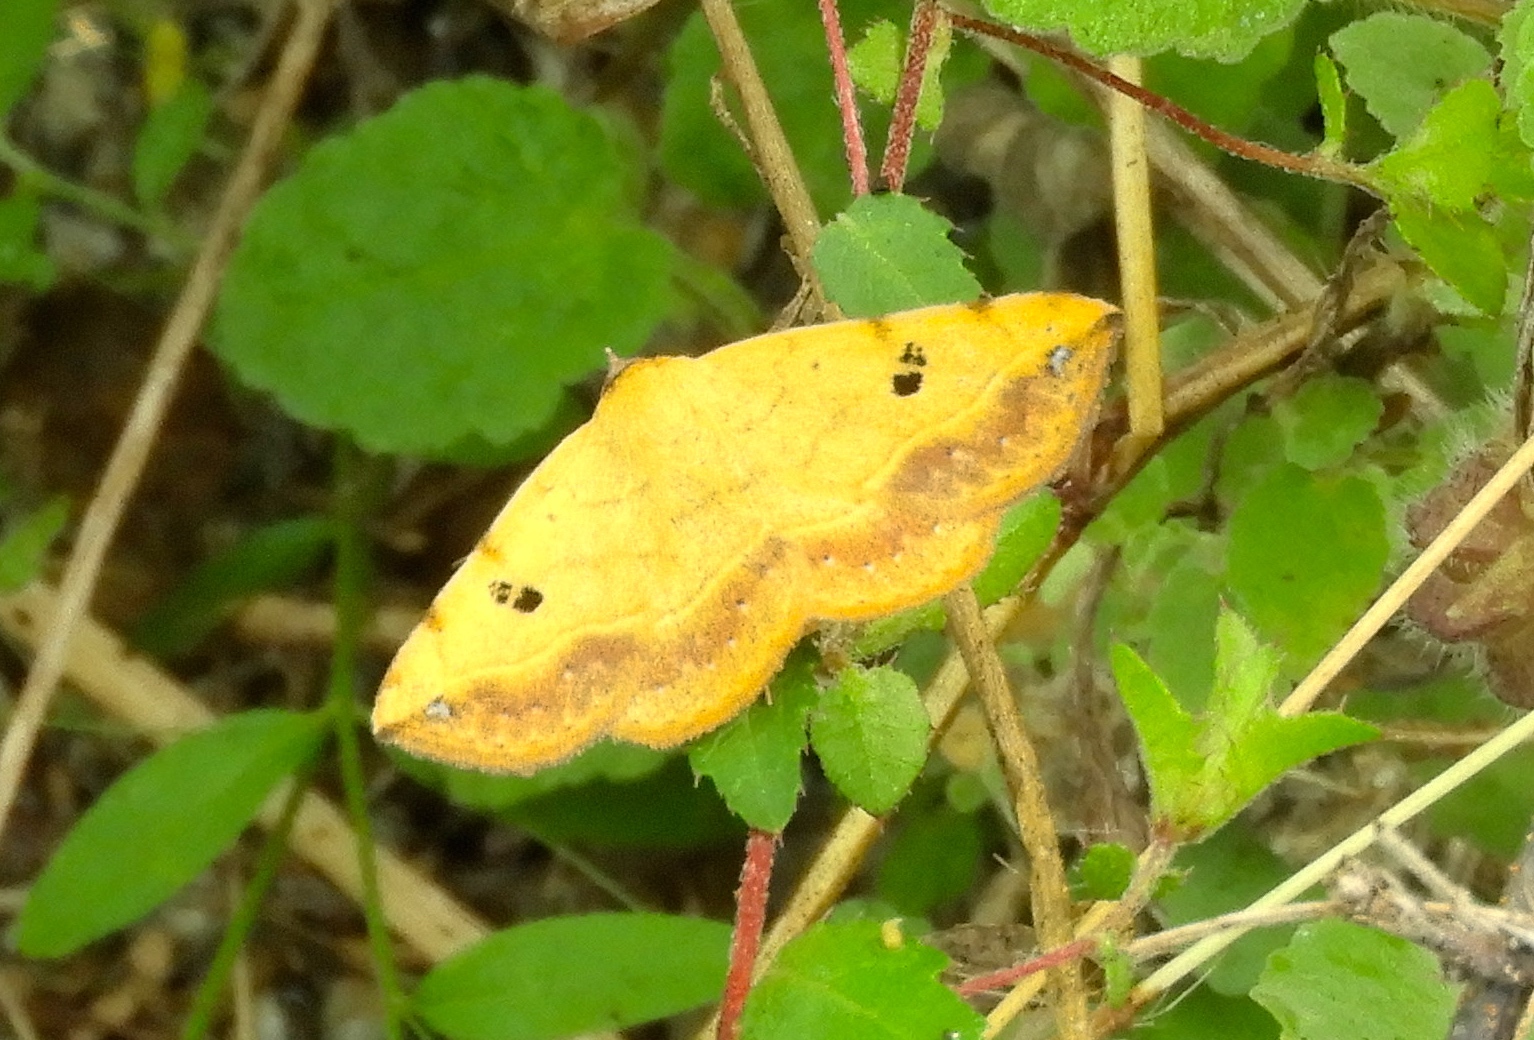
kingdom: Animalia
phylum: Arthropoda
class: Insecta
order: Lepidoptera
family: Erebidae
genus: Hemeroplanis
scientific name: Hemeroplanis scopulepes
